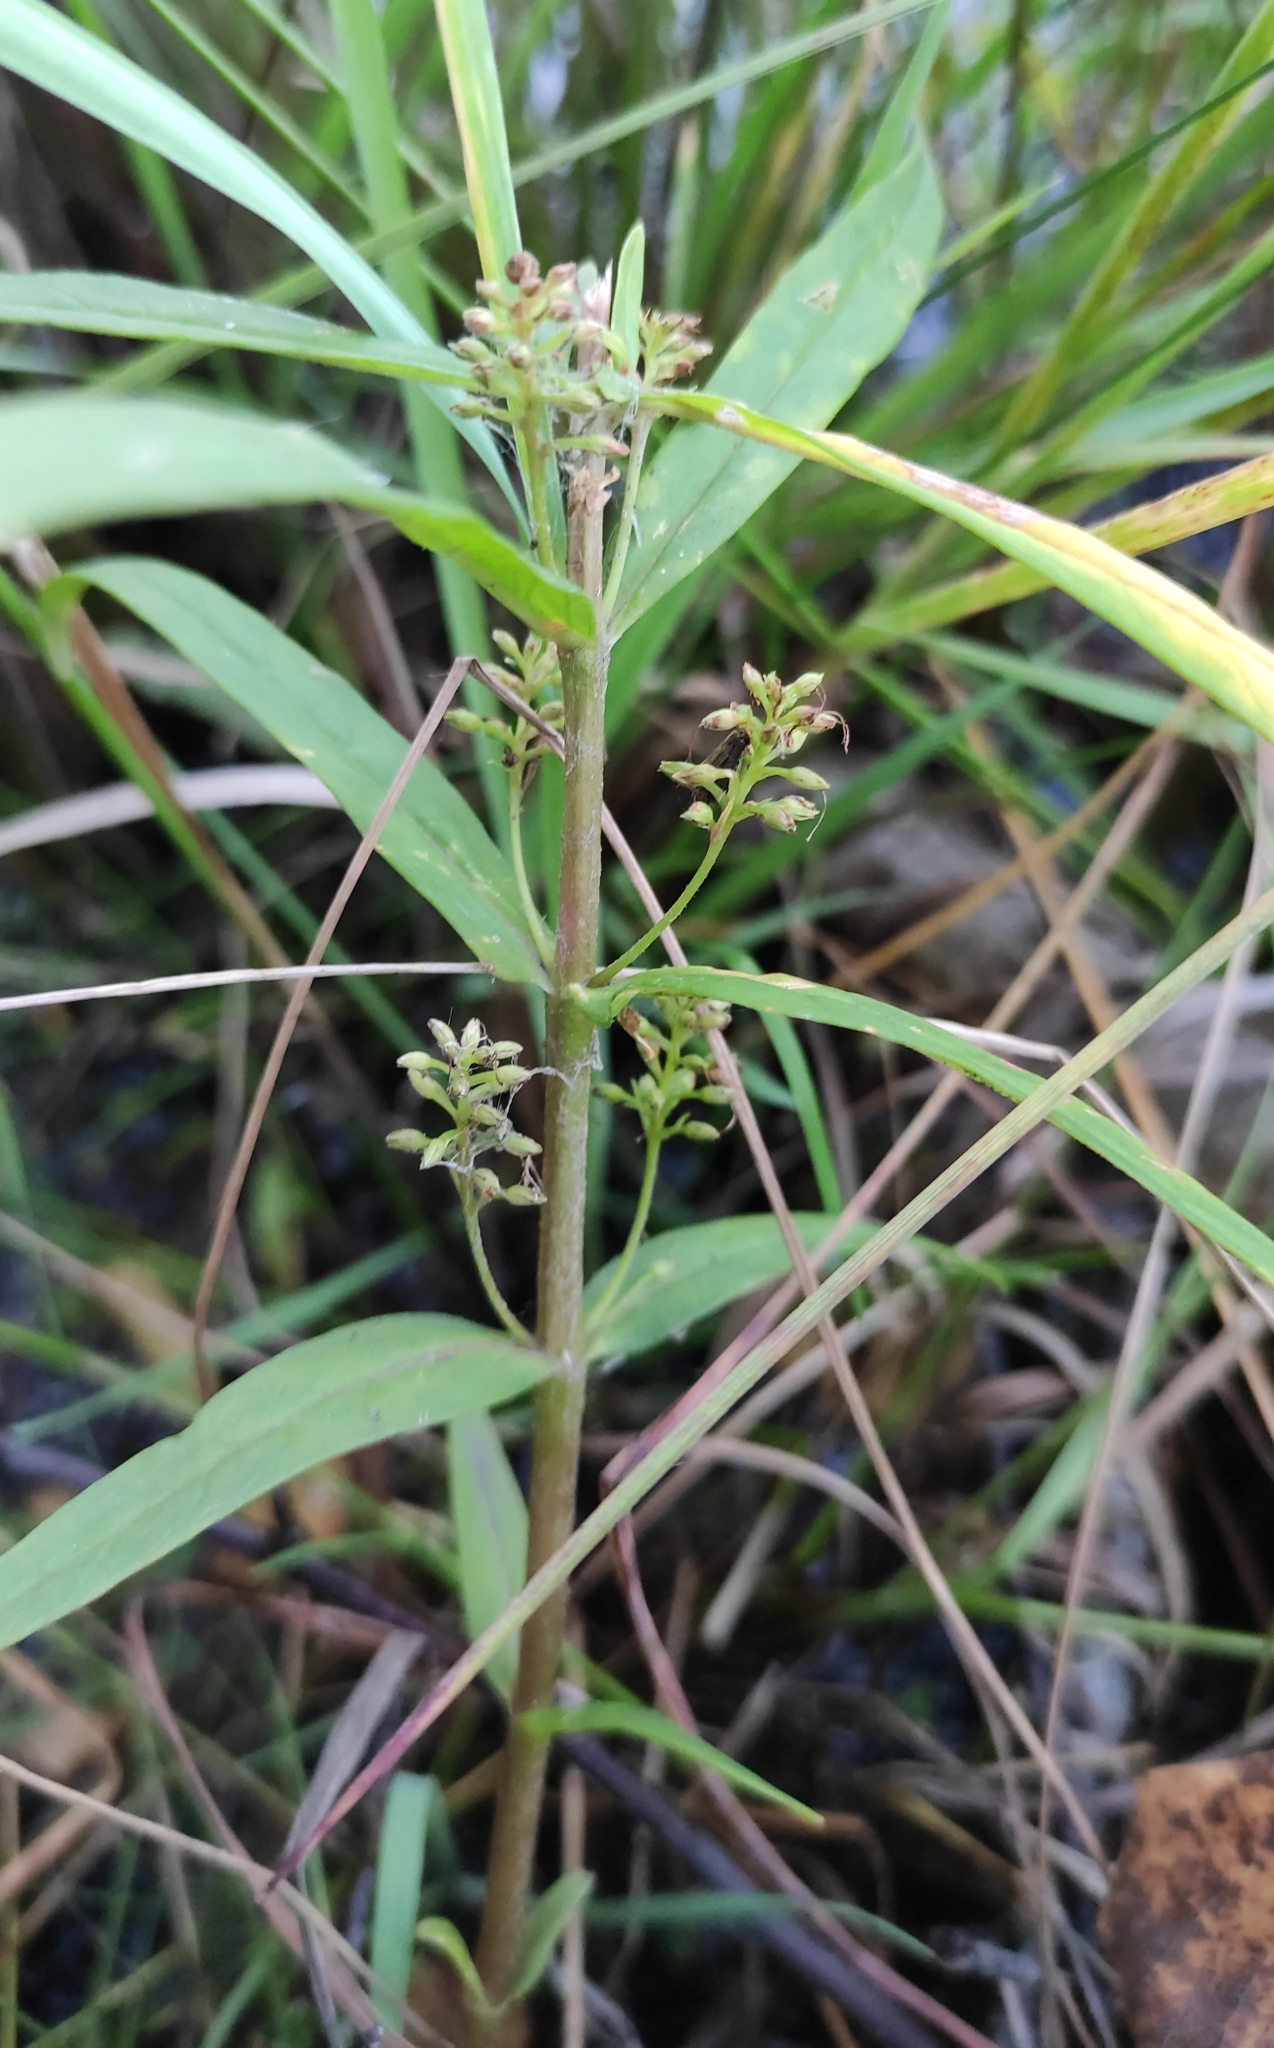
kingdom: Plantae
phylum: Tracheophyta
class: Magnoliopsida
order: Ericales
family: Primulaceae
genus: Lysimachia
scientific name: Lysimachia thyrsiflora
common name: Tufted loosestrife
